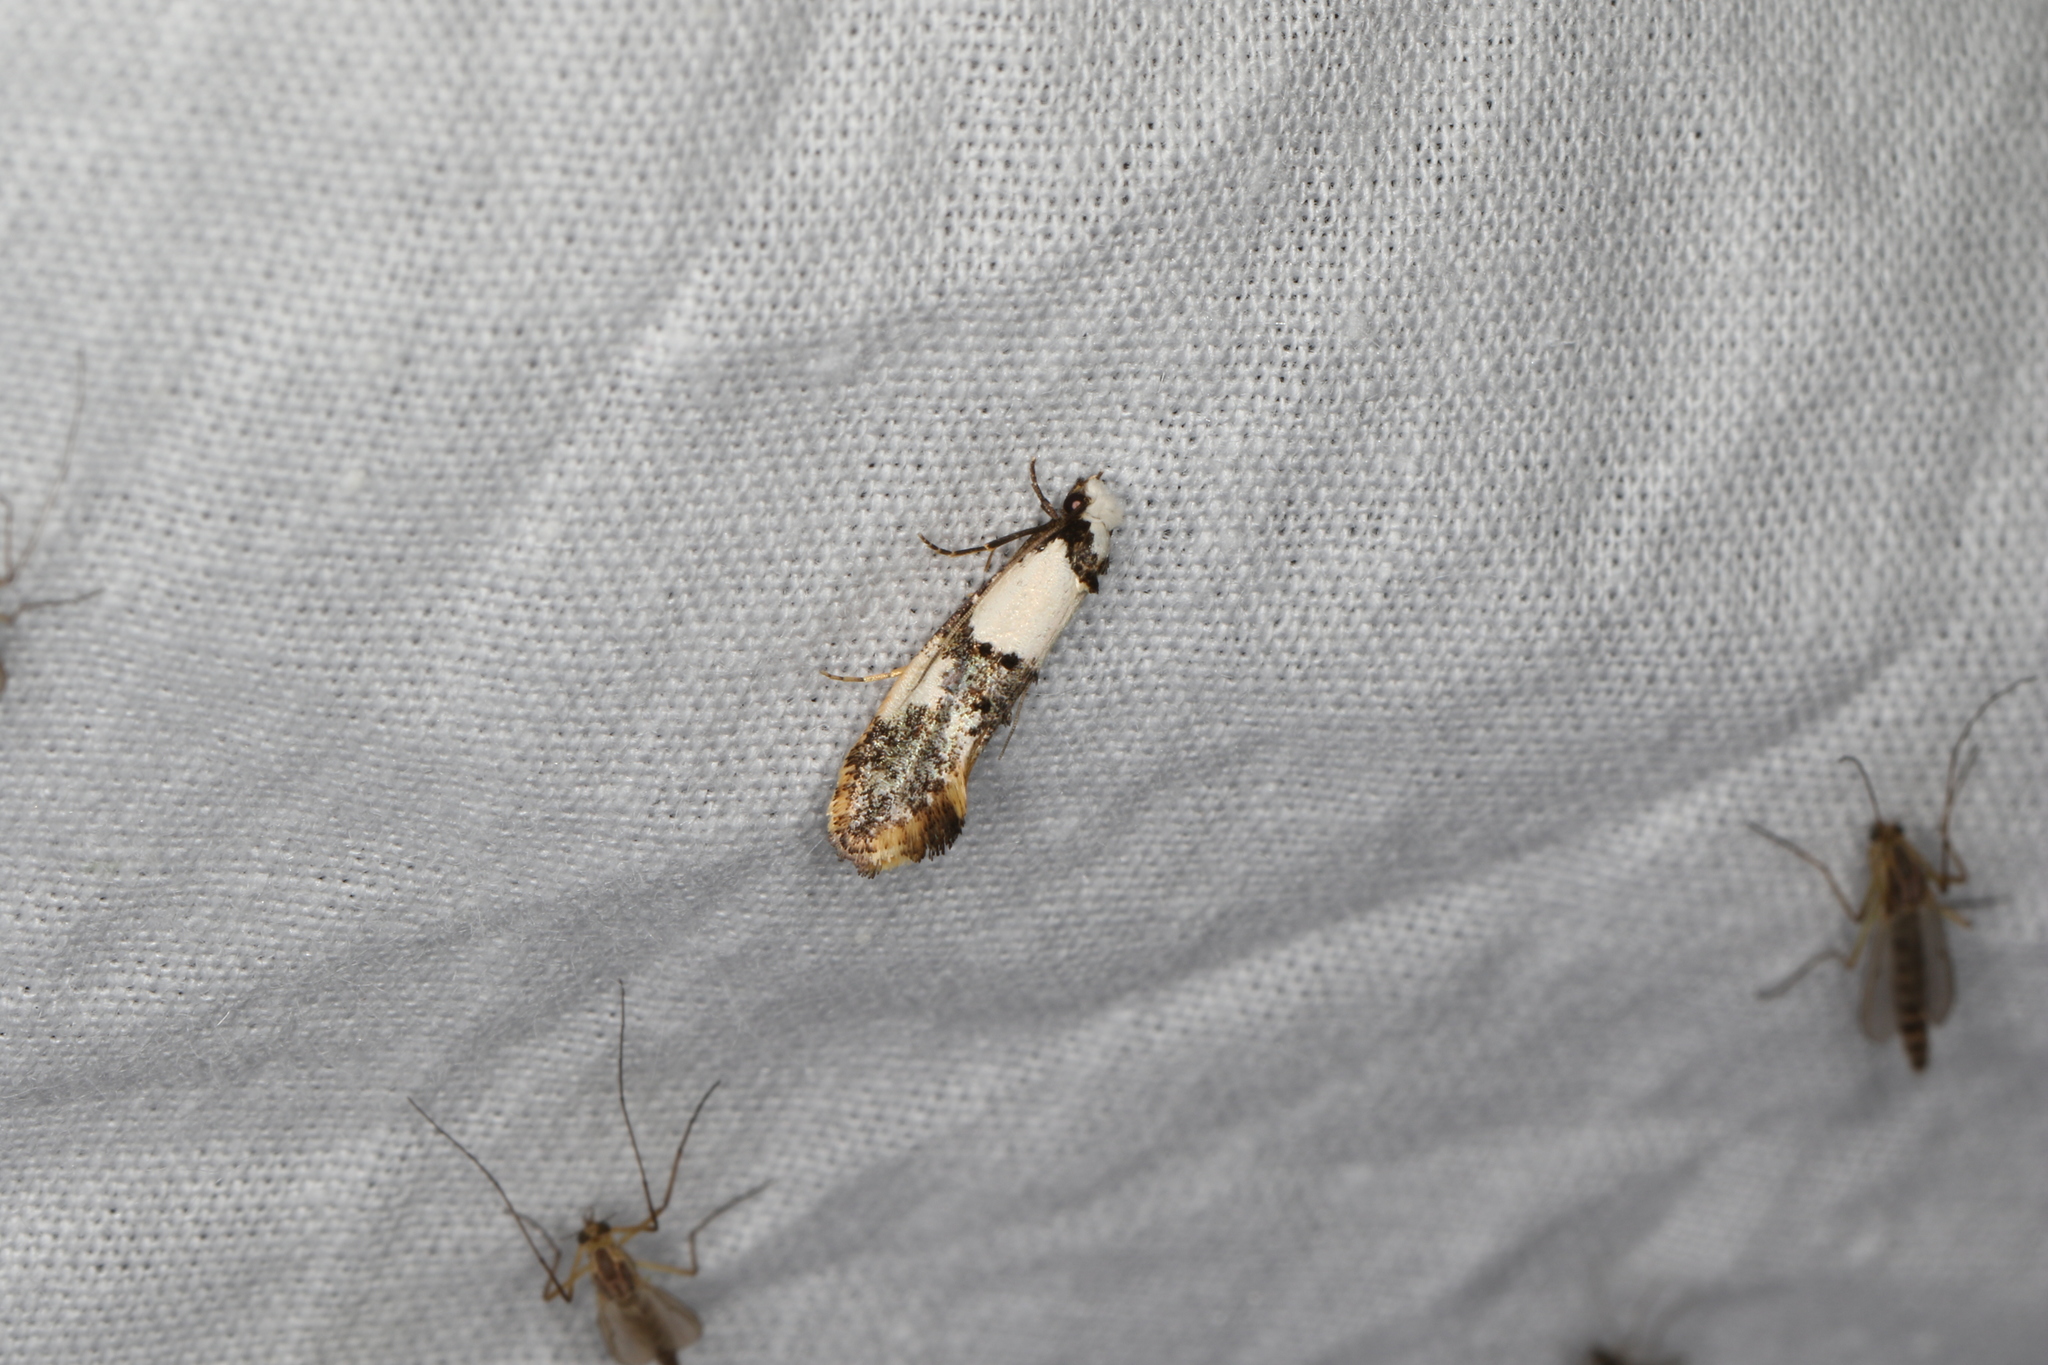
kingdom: Animalia
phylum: Arthropoda
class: Insecta
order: Lepidoptera
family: Tineidae
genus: Monopis
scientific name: Monopis meliorella
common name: Blotched monopis moth
